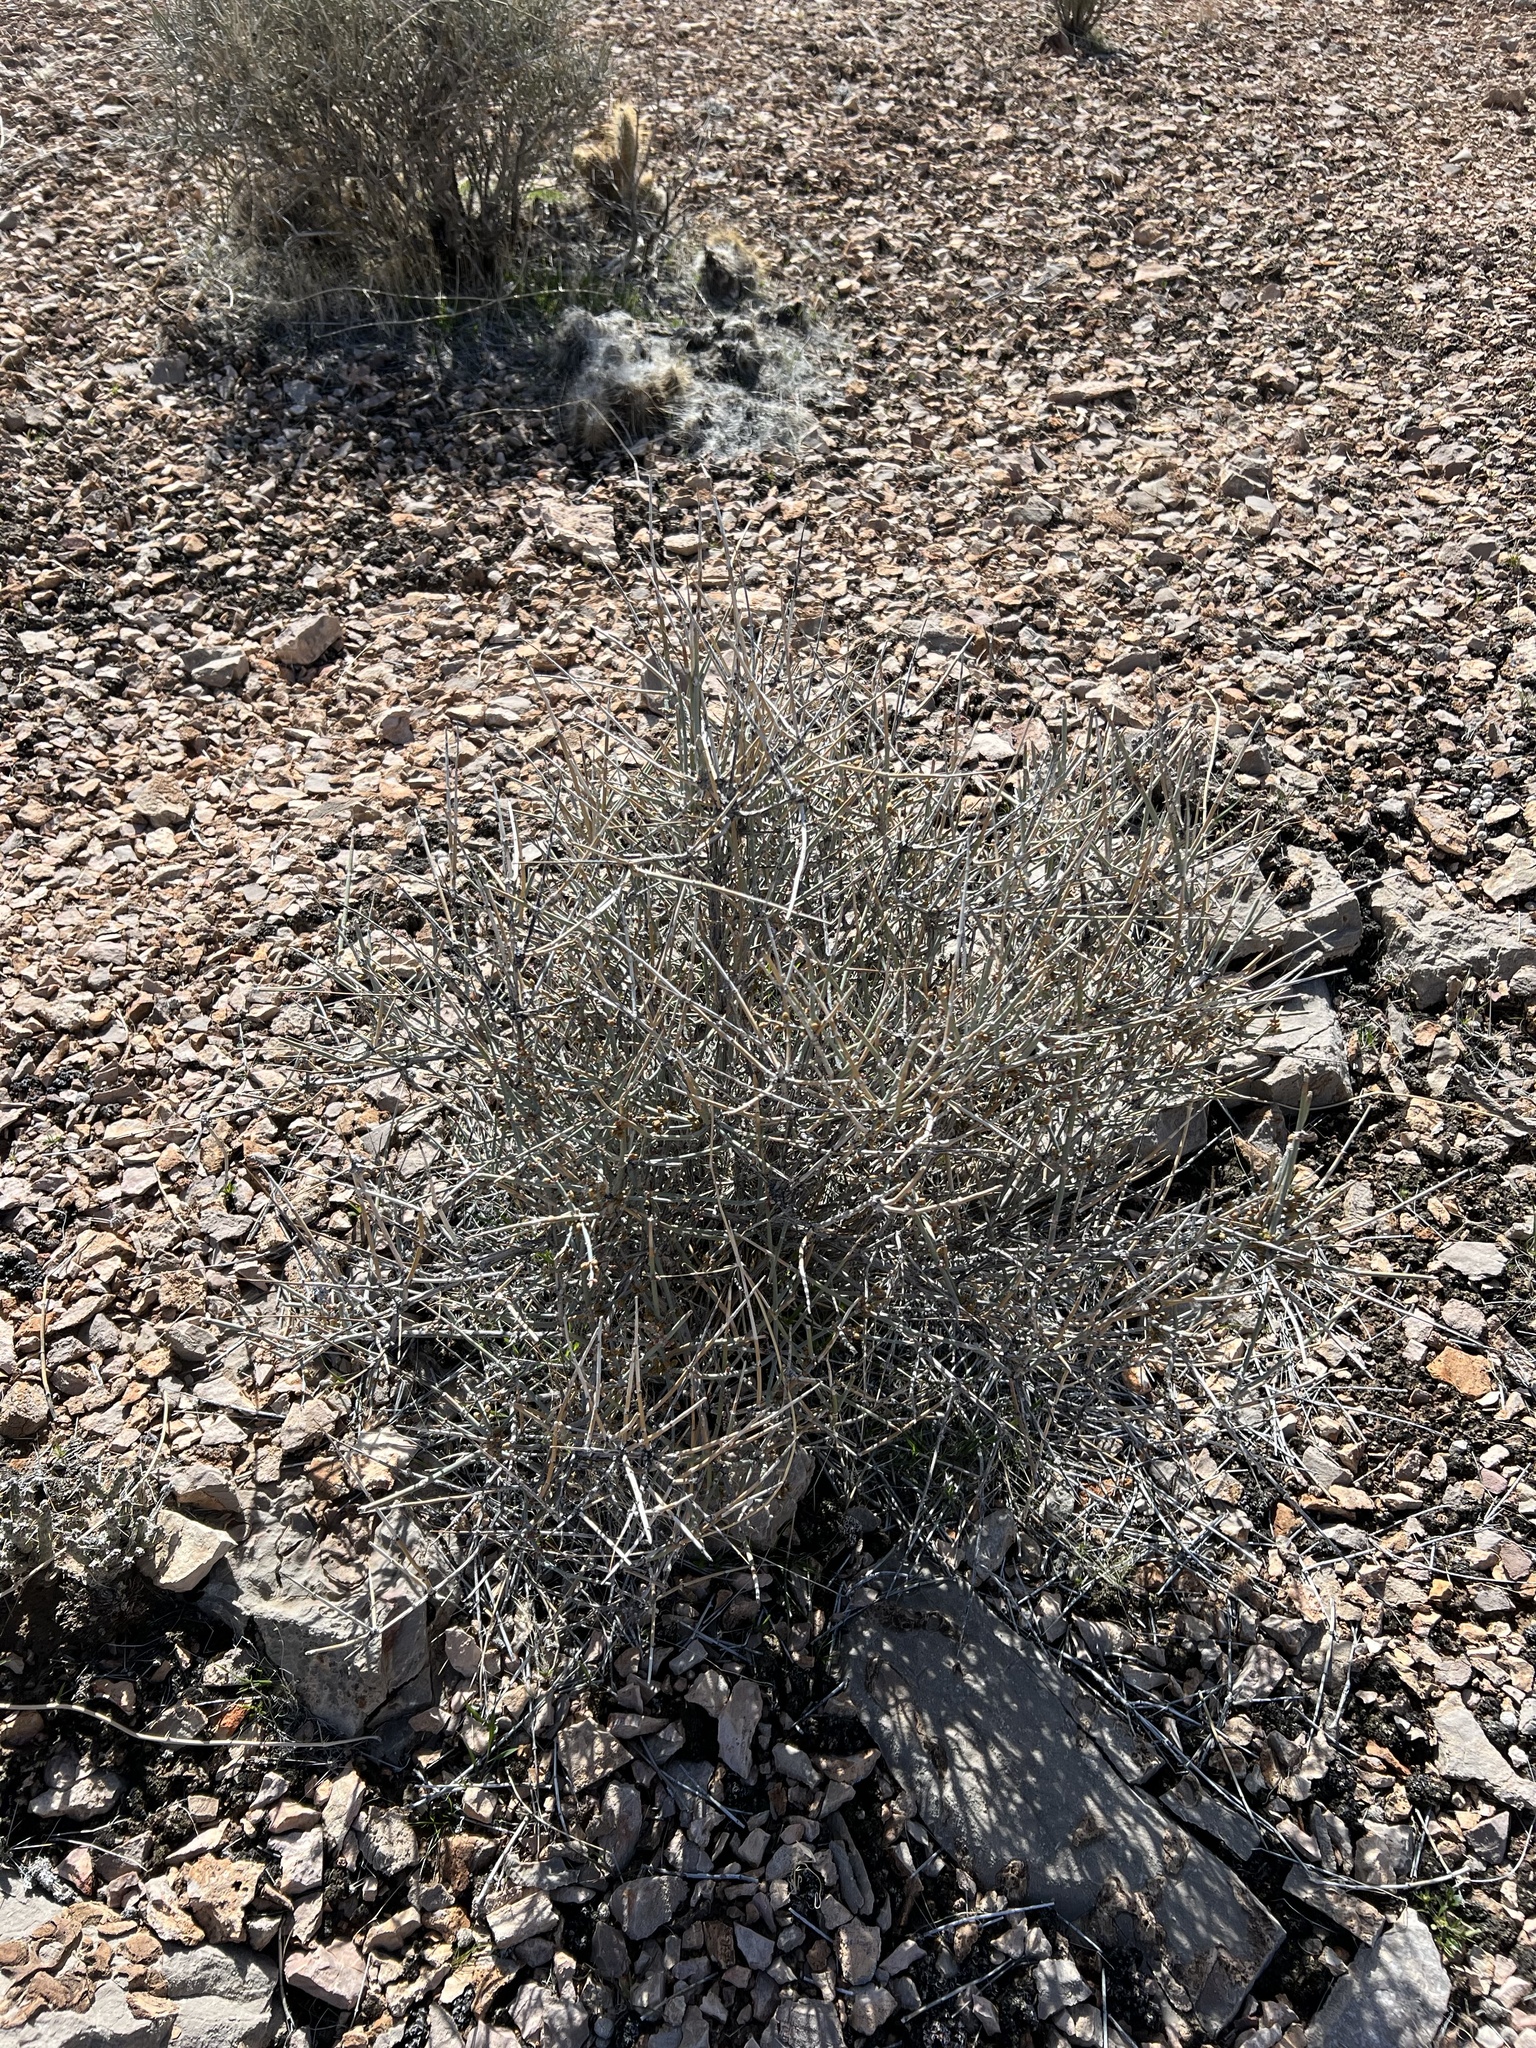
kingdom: Plantae
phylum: Tracheophyta
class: Gnetopsida
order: Ephedrales
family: Ephedraceae
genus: Ephedra
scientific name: Ephedra nevadensis
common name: Gray ephedra
